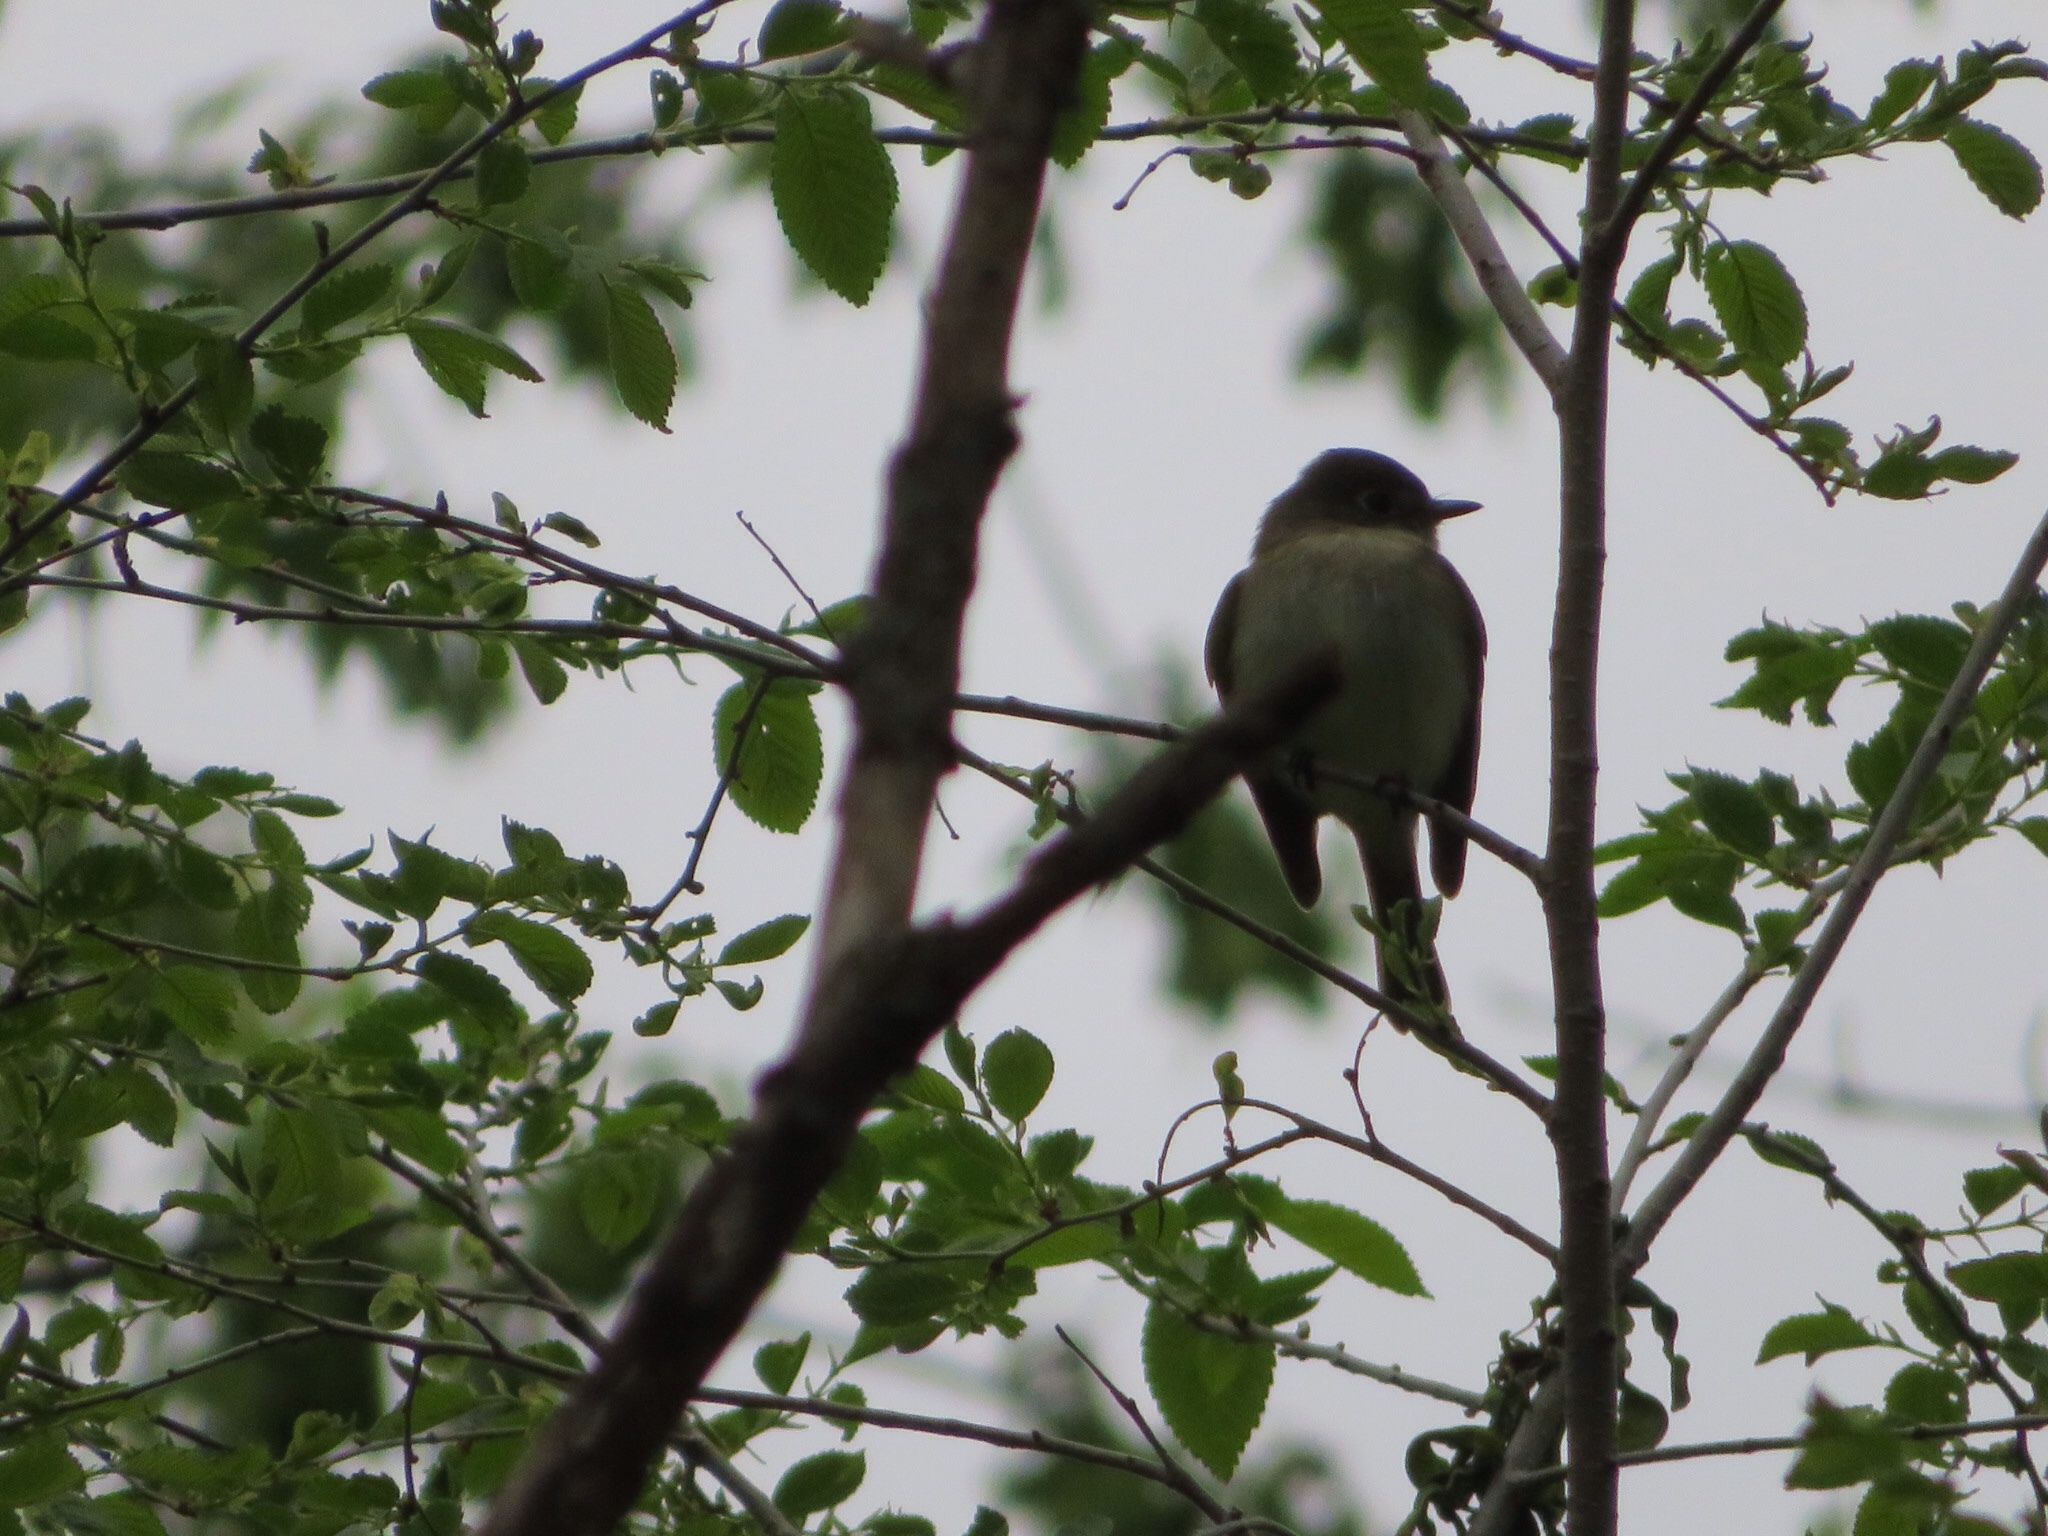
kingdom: Animalia
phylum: Chordata
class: Aves
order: Passeriformes
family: Tyrannidae
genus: Empidonax
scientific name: Empidonax
